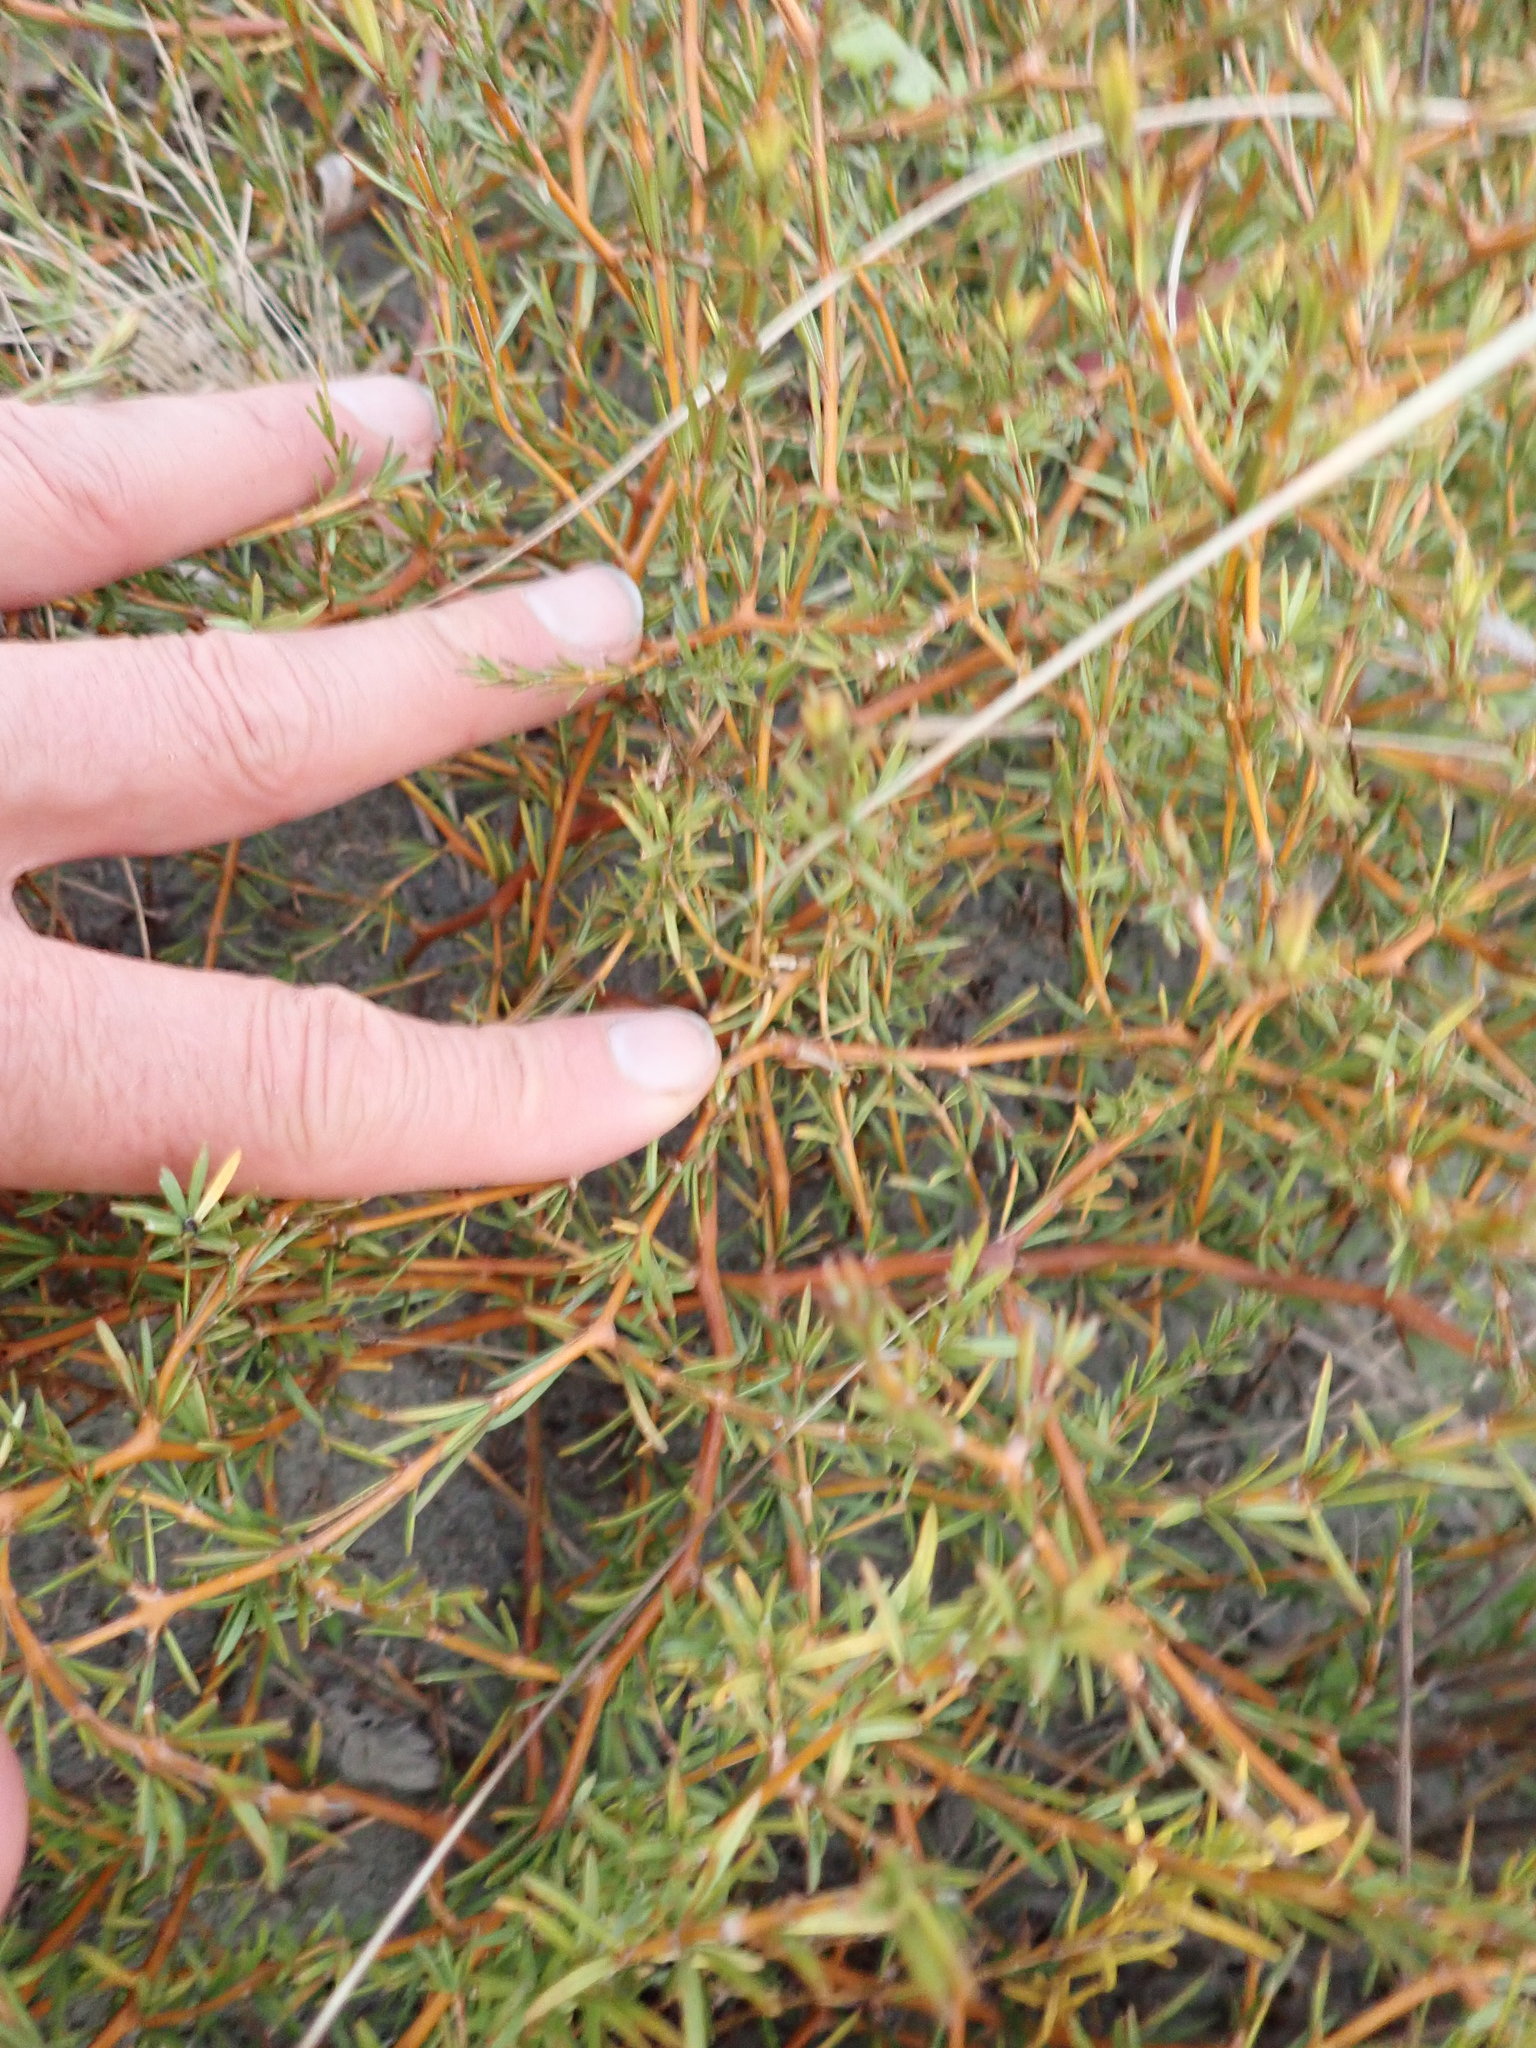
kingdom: Plantae
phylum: Tracheophyta
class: Magnoliopsida
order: Gentianales
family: Rubiaceae
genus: Coprosma
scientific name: Coprosma acerosa
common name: Sand coprosma
